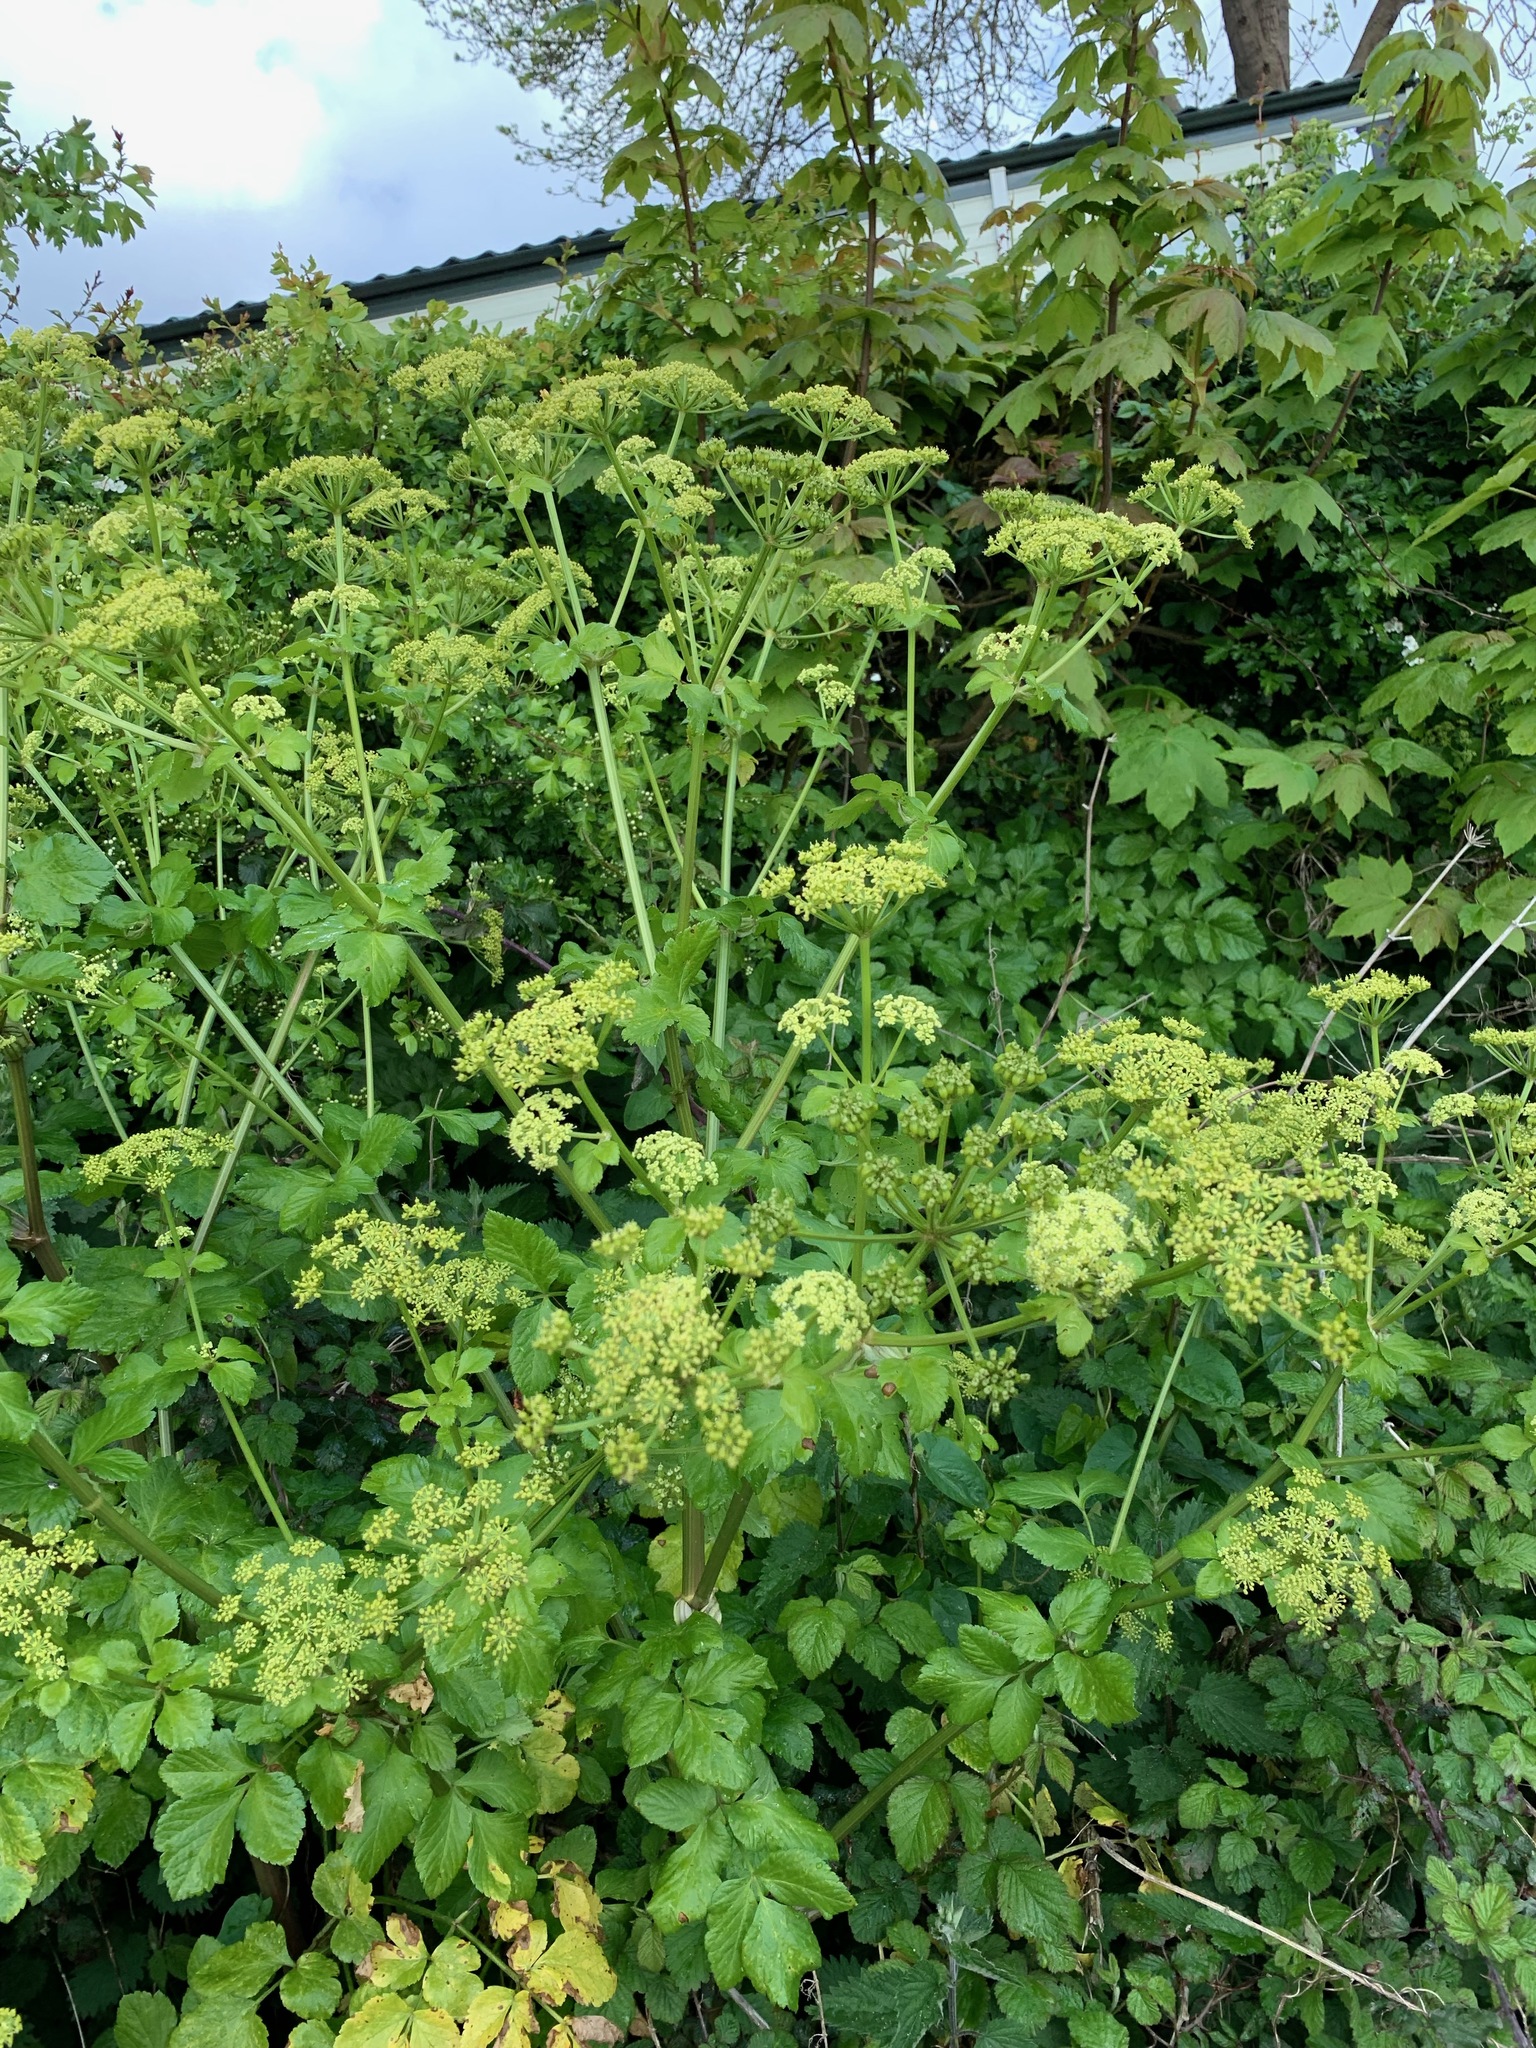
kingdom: Plantae
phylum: Tracheophyta
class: Magnoliopsida
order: Apiales
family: Apiaceae
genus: Smyrnium
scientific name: Smyrnium olusatrum
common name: Alexanders
